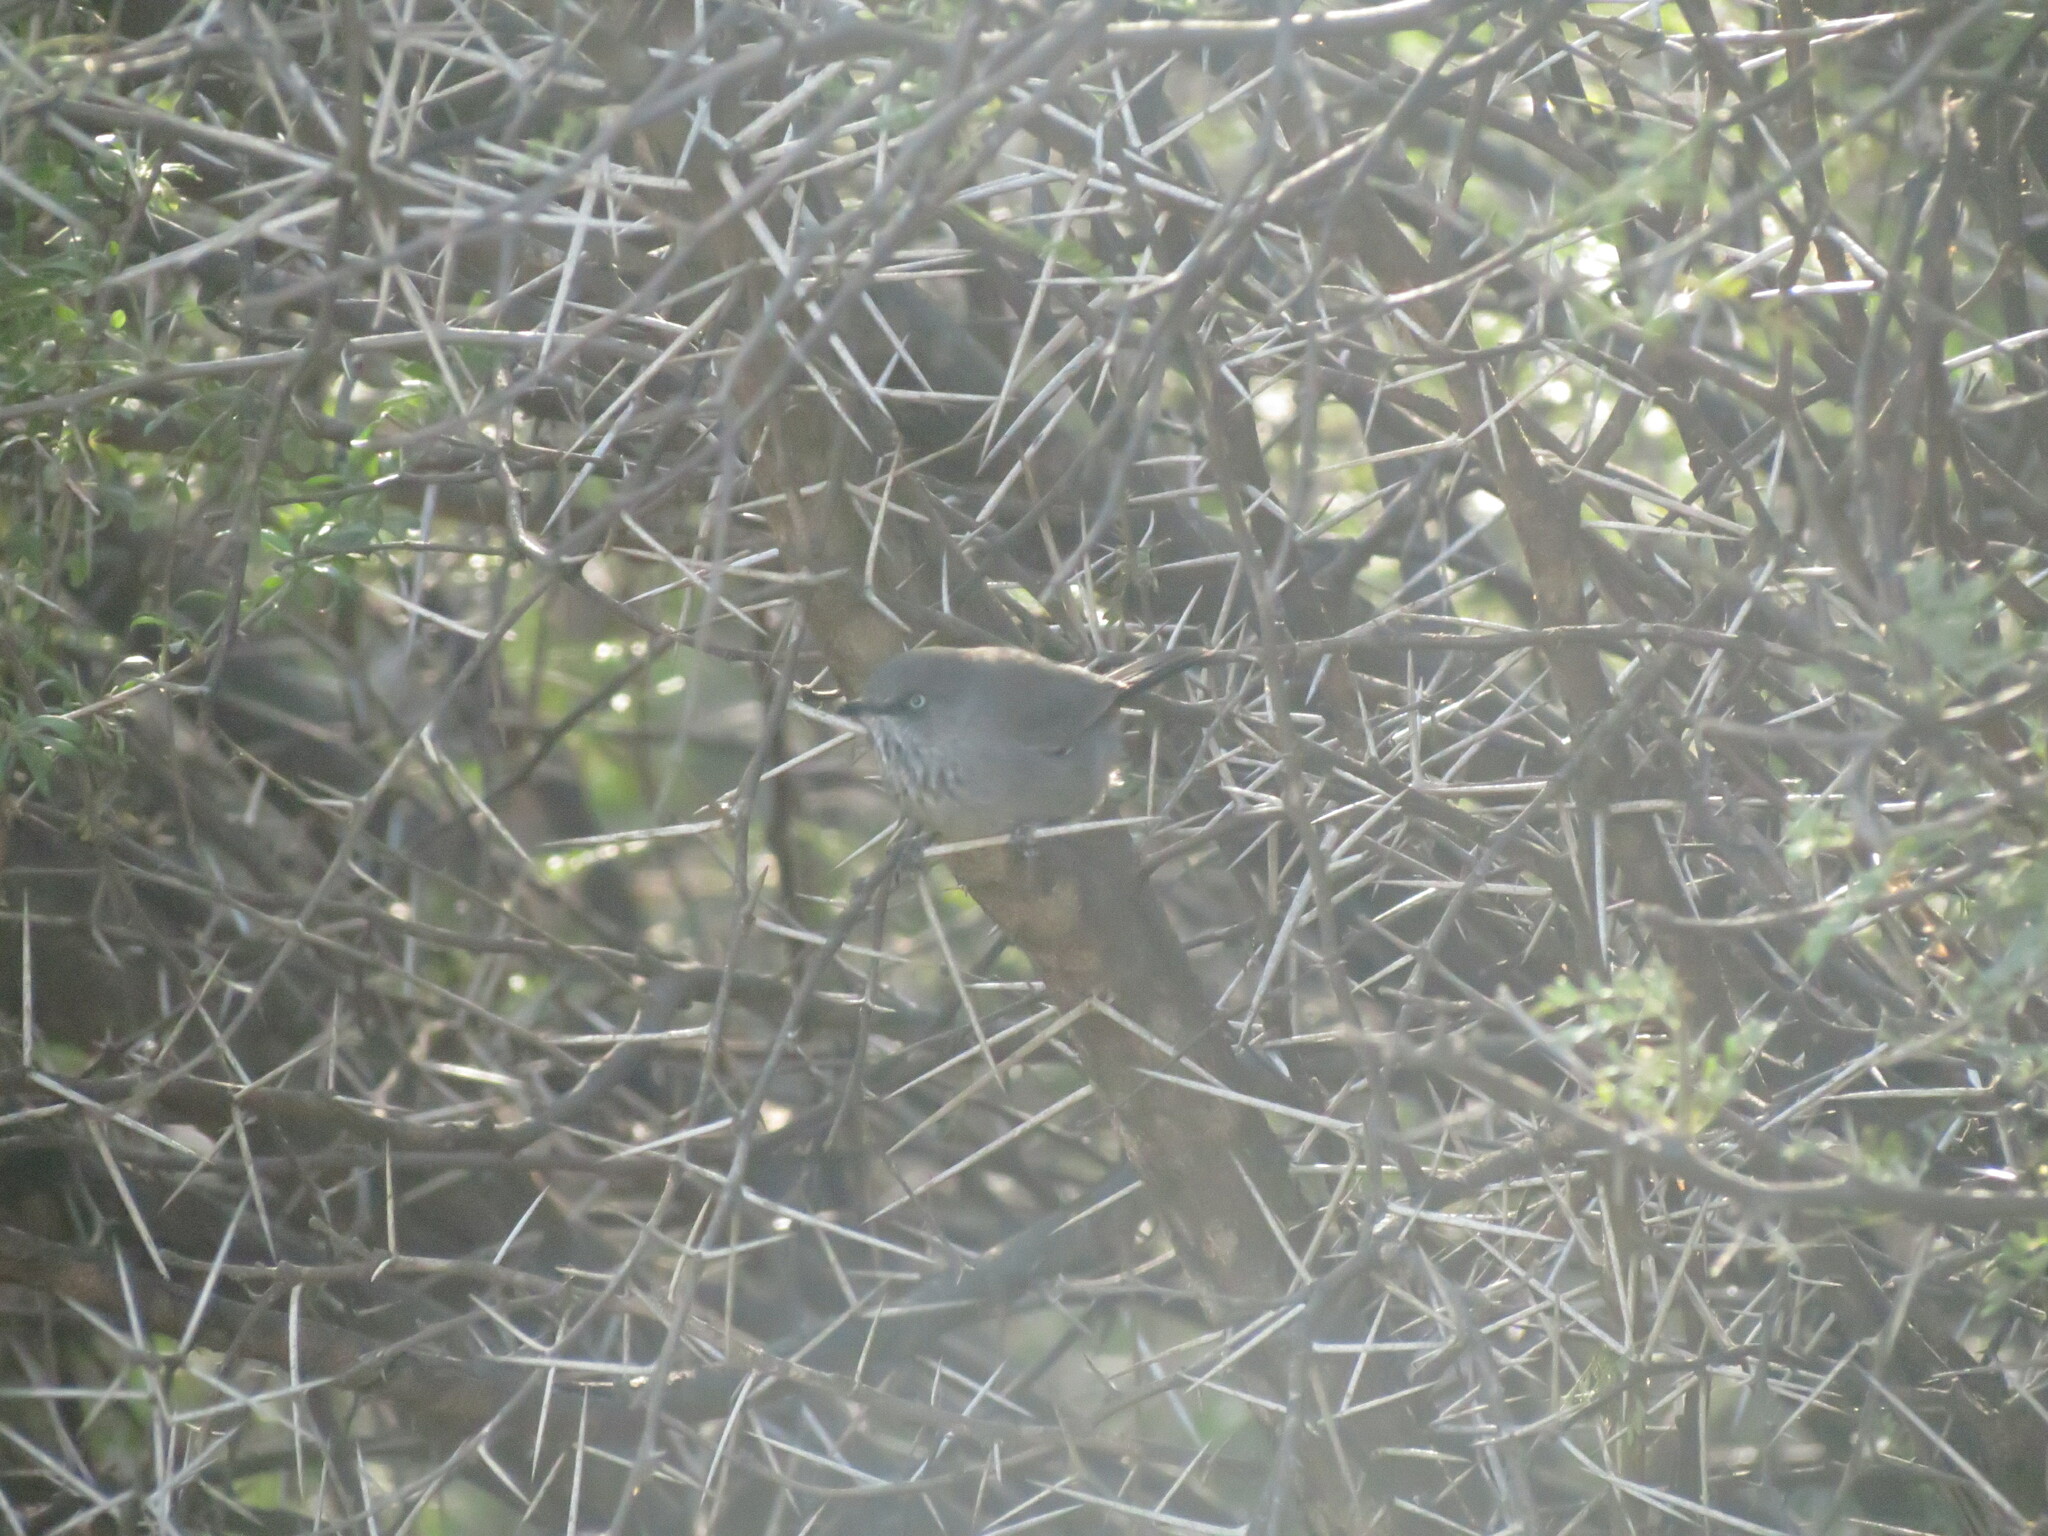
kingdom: Animalia
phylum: Chordata
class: Aves
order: Passeriformes
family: Sylviidae
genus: Curruca
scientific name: Curruca subcoerulea
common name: Chestnut-vented warbler
